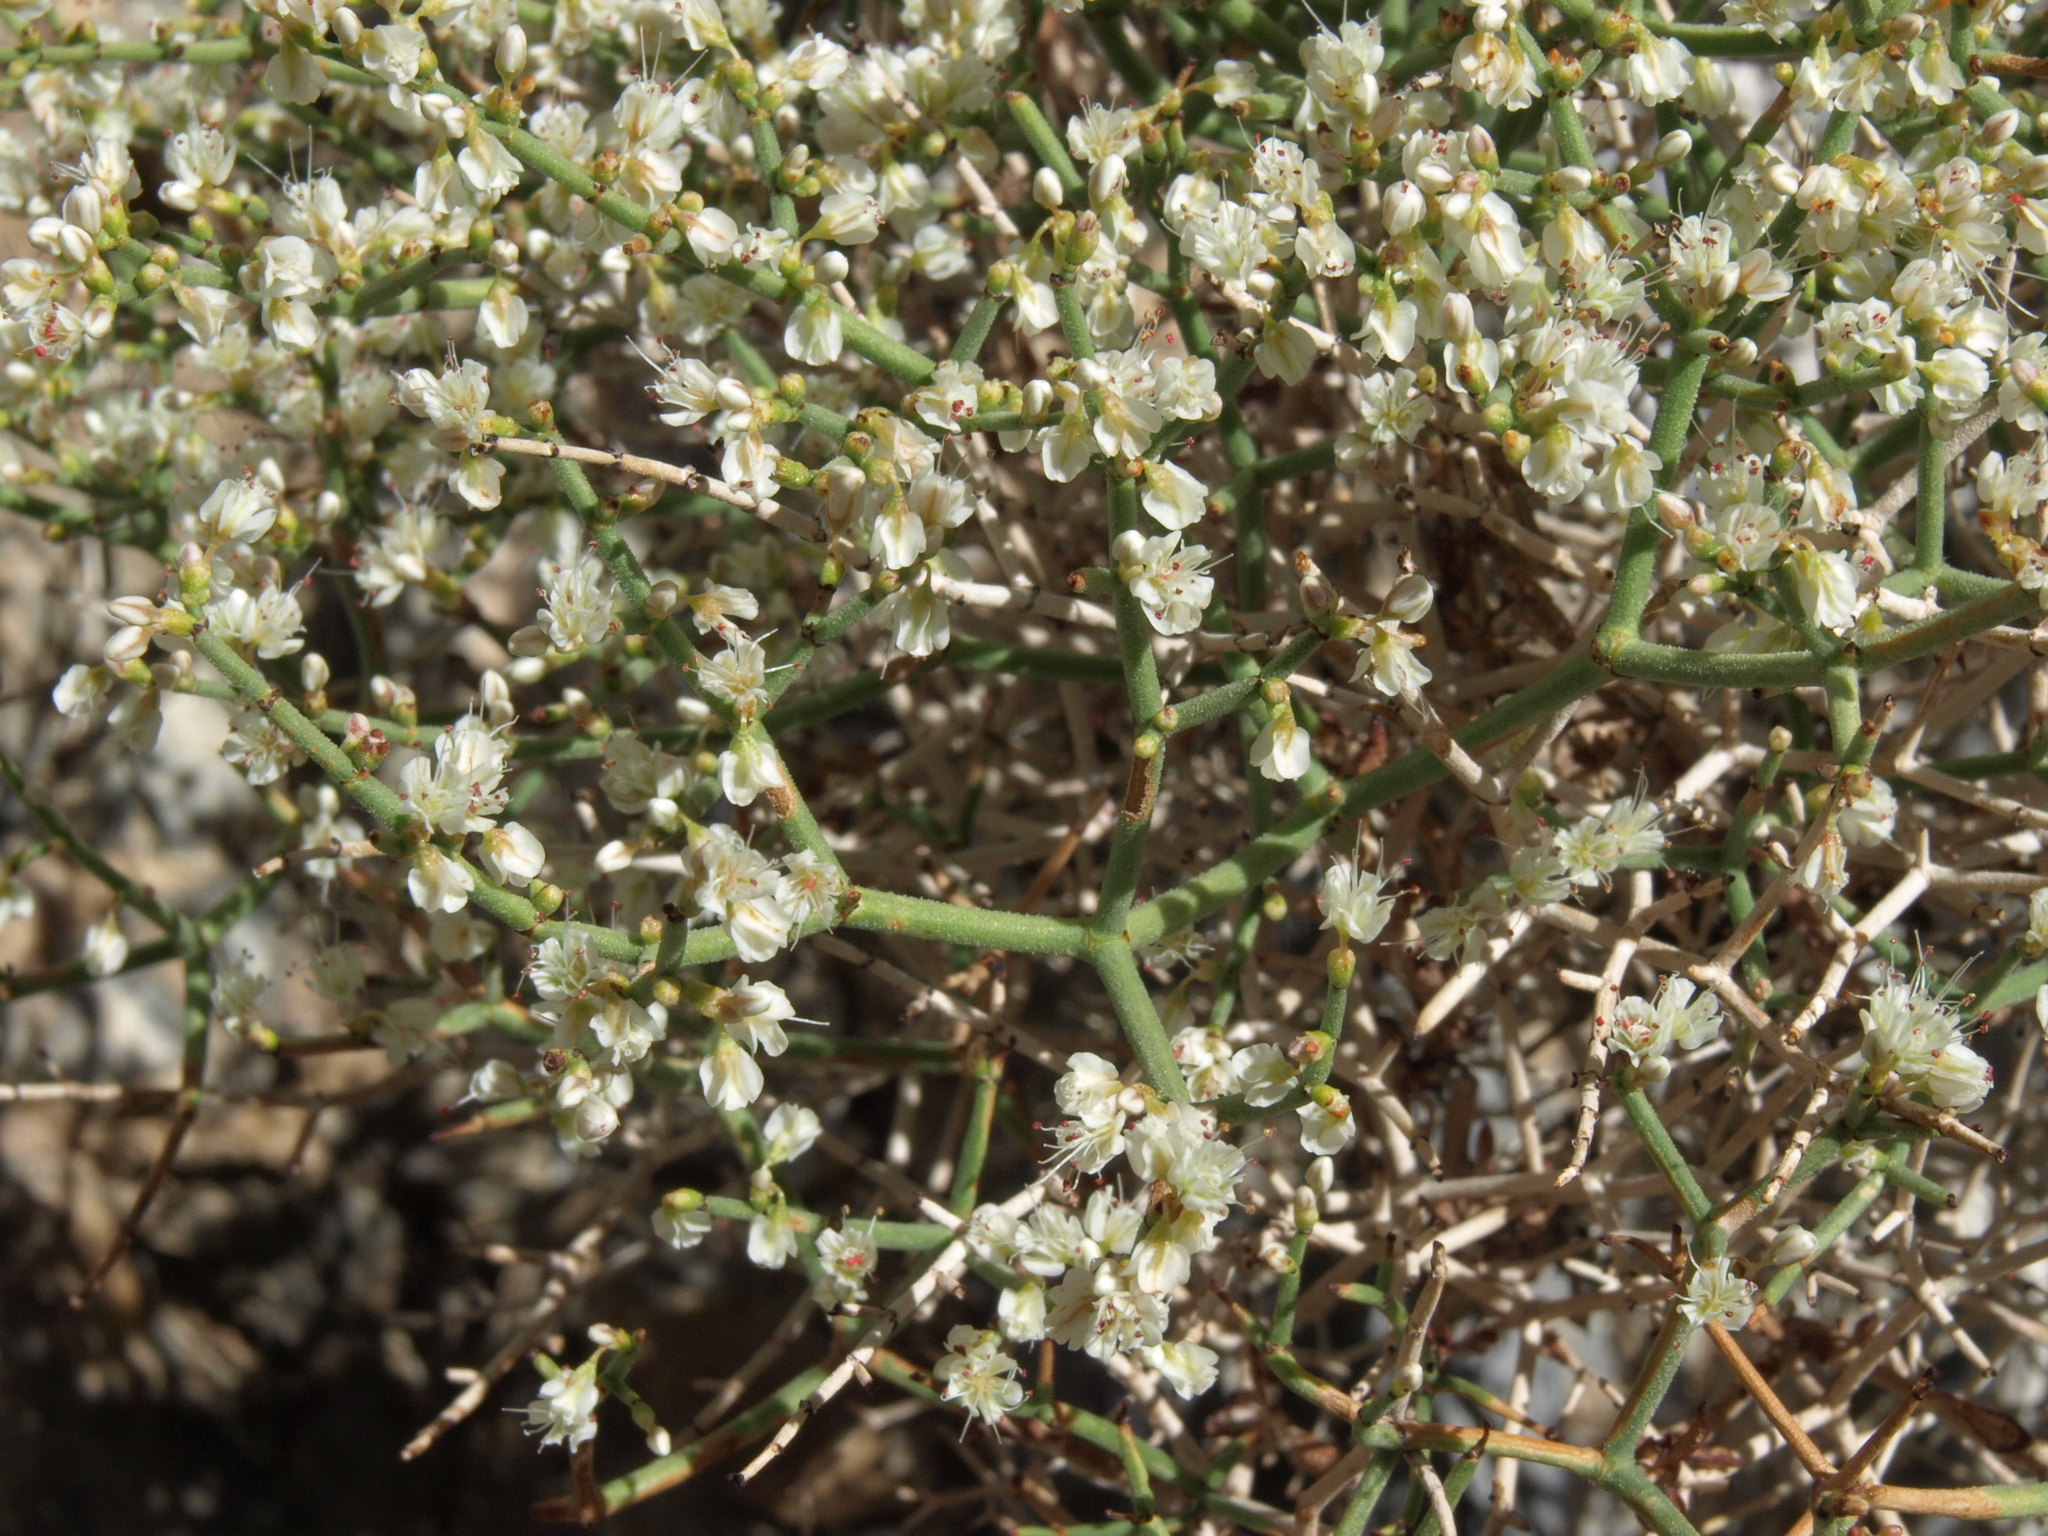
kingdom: Plantae
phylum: Tracheophyta
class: Magnoliopsida
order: Caryophyllales
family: Polygonaceae
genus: Eriogonum
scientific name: Eriogonum heermannii
